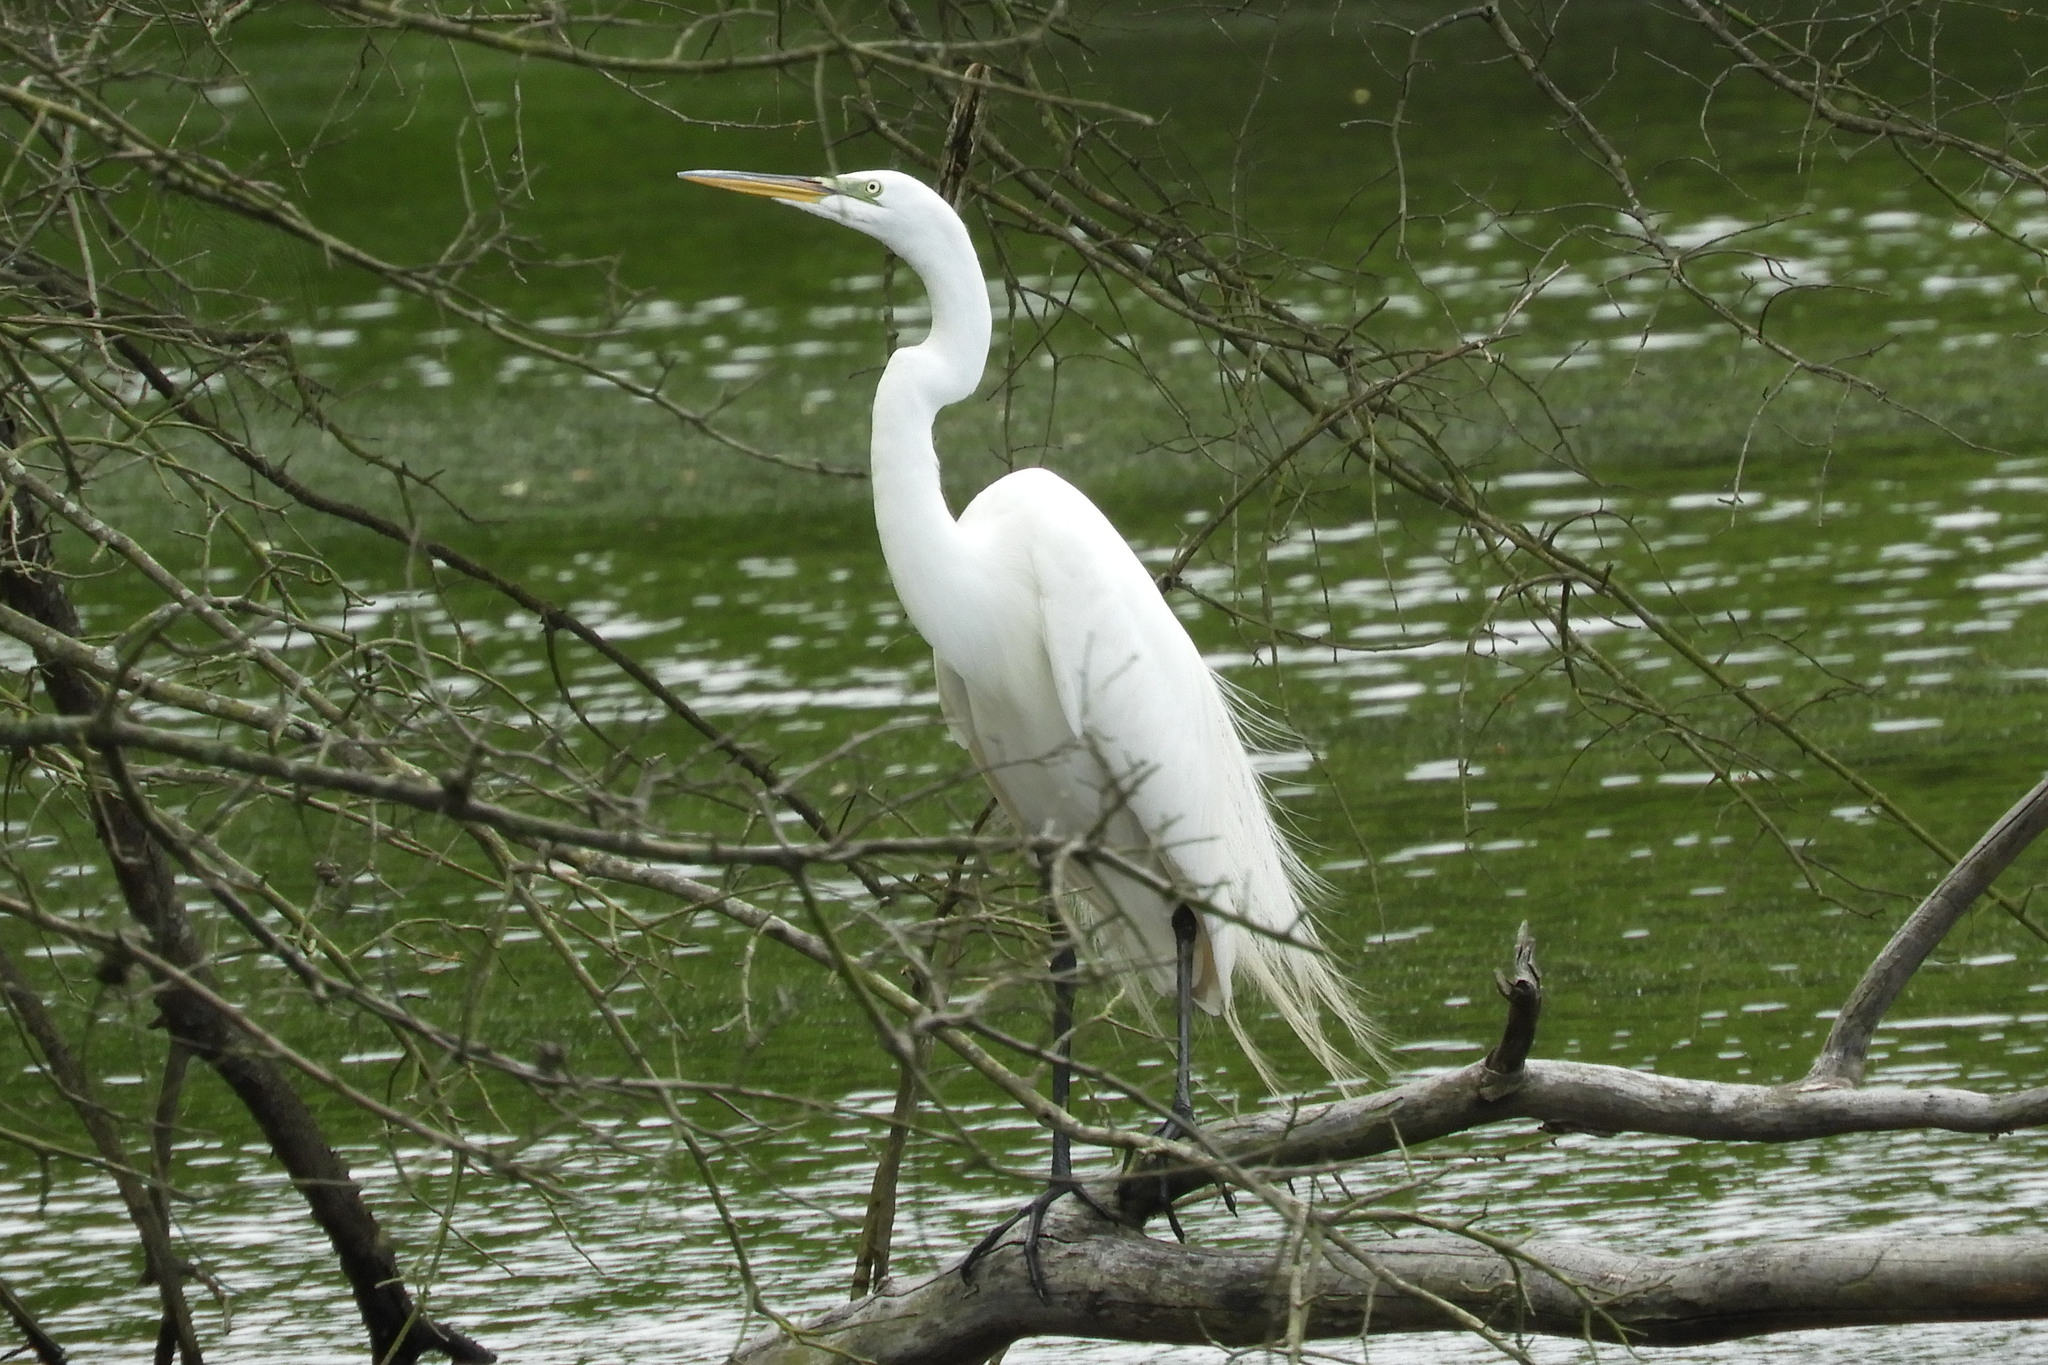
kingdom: Animalia
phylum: Chordata
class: Aves
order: Pelecaniformes
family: Ardeidae
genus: Ardea
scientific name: Ardea alba
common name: Great egret
